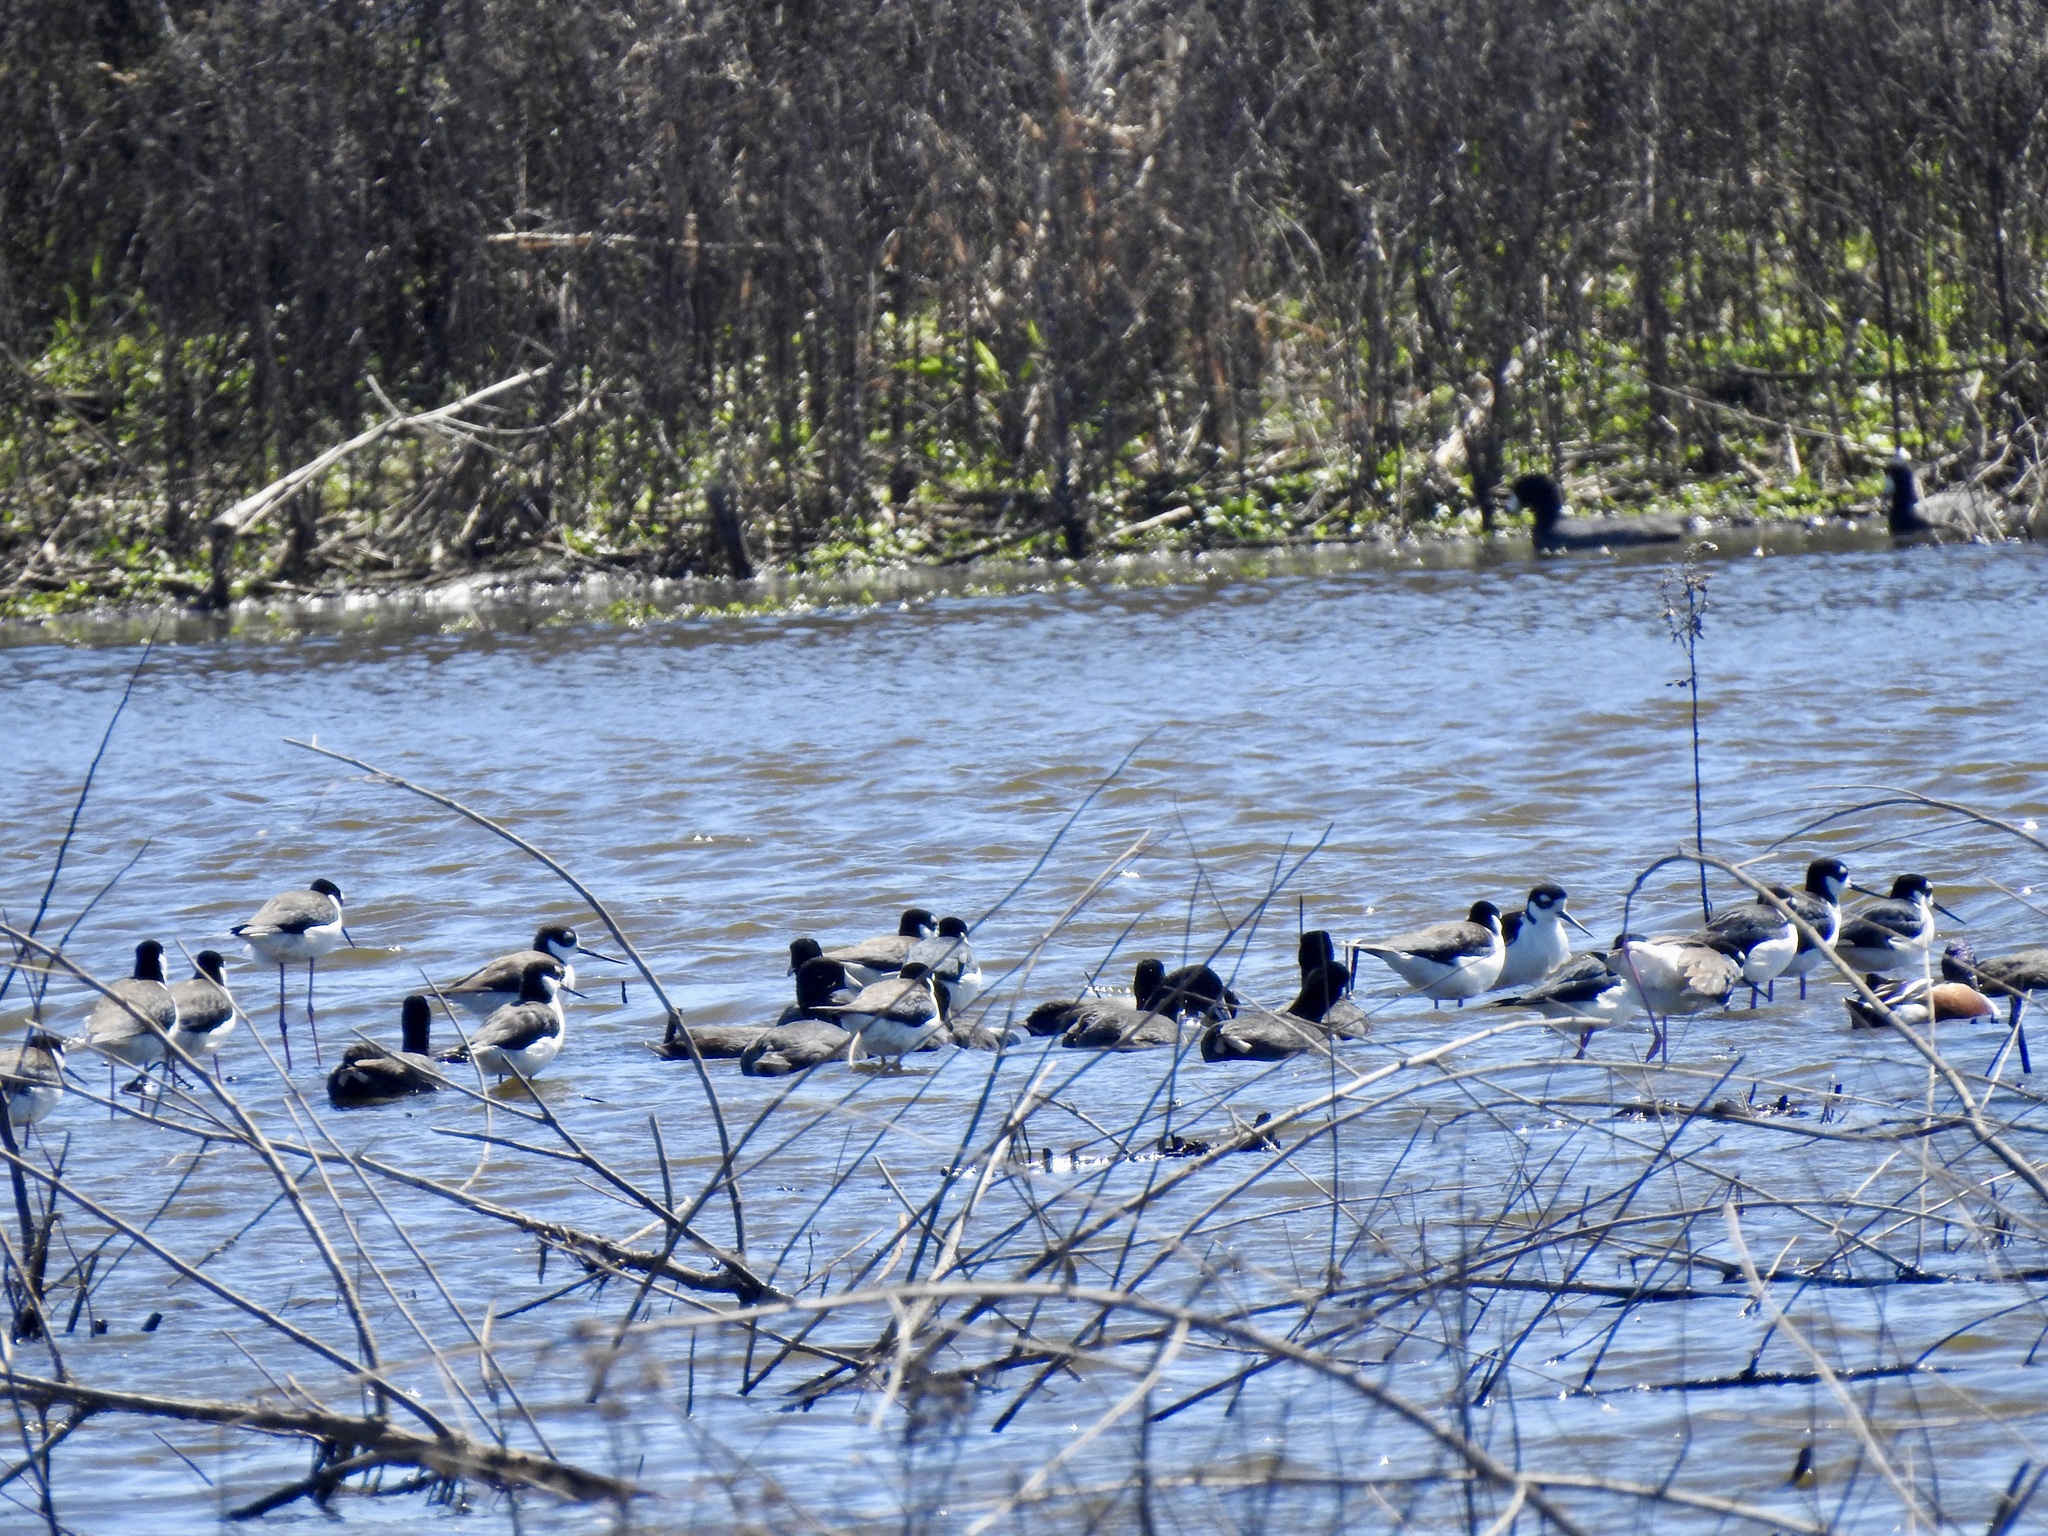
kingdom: Animalia
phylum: Chordata
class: Aves
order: Charadriiformes
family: Recurvirostridae
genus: Himantopus
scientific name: Himantopus mexicanus
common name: Black-necked stilt
